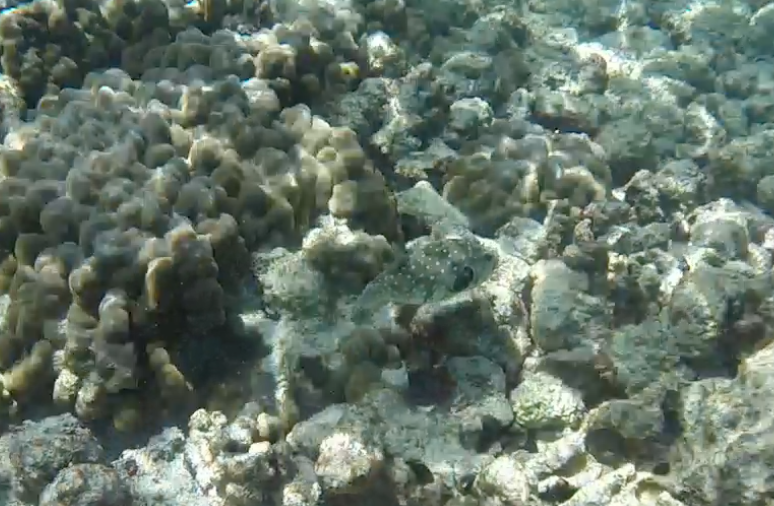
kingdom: Animalia
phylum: Chordata
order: Tetraodontiformes
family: Tetraodontidae
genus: Arothron
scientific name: Arothron hispidus
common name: Stripebelly puffer
